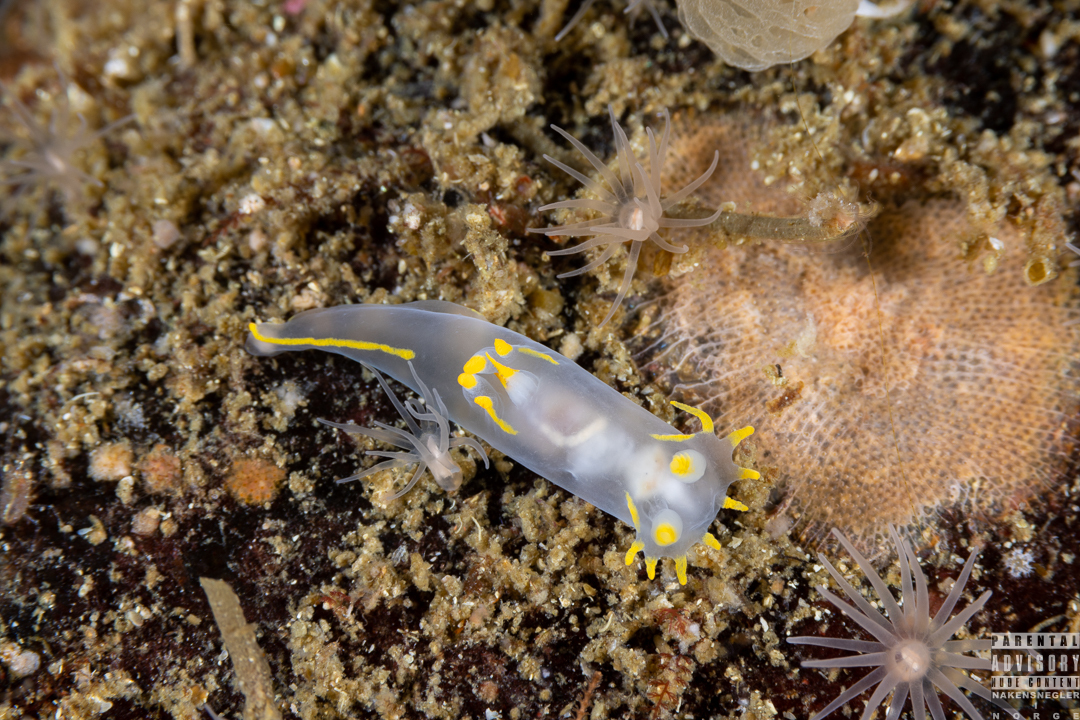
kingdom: Animalia
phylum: Mollusca
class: Gastropoda
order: Nudibranchia
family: Polyceridae
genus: Polycera
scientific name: Polycera faeroensis
